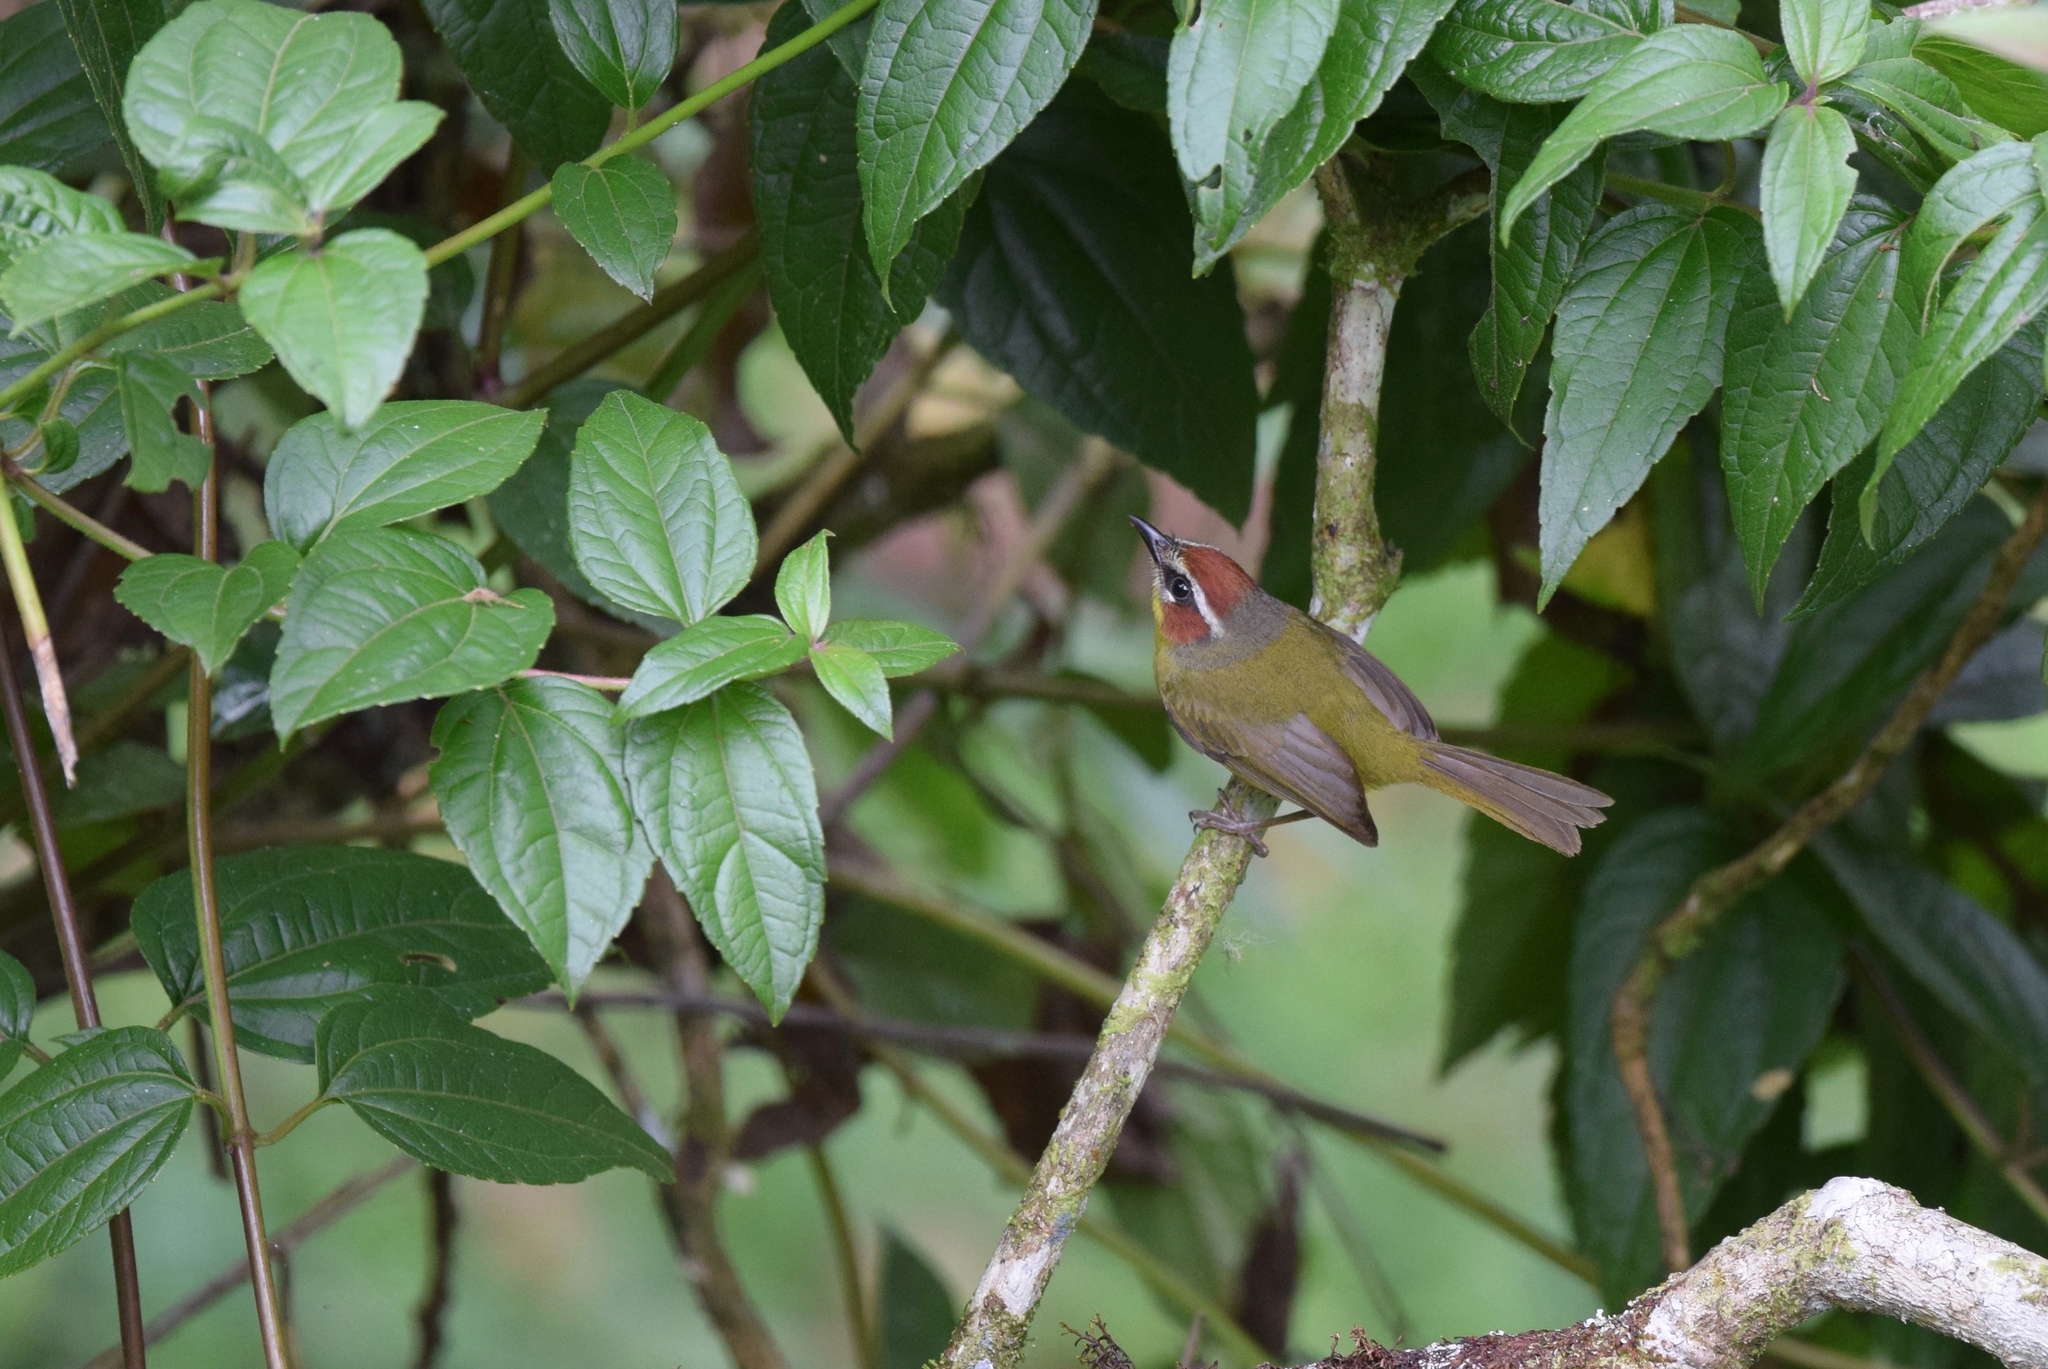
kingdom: Animalia
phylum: Chordata
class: Aves
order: Passeriformes
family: Parulidae
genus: Basileuterus
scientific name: Basileuterus rufifrons
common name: Rufous-capped warbler
